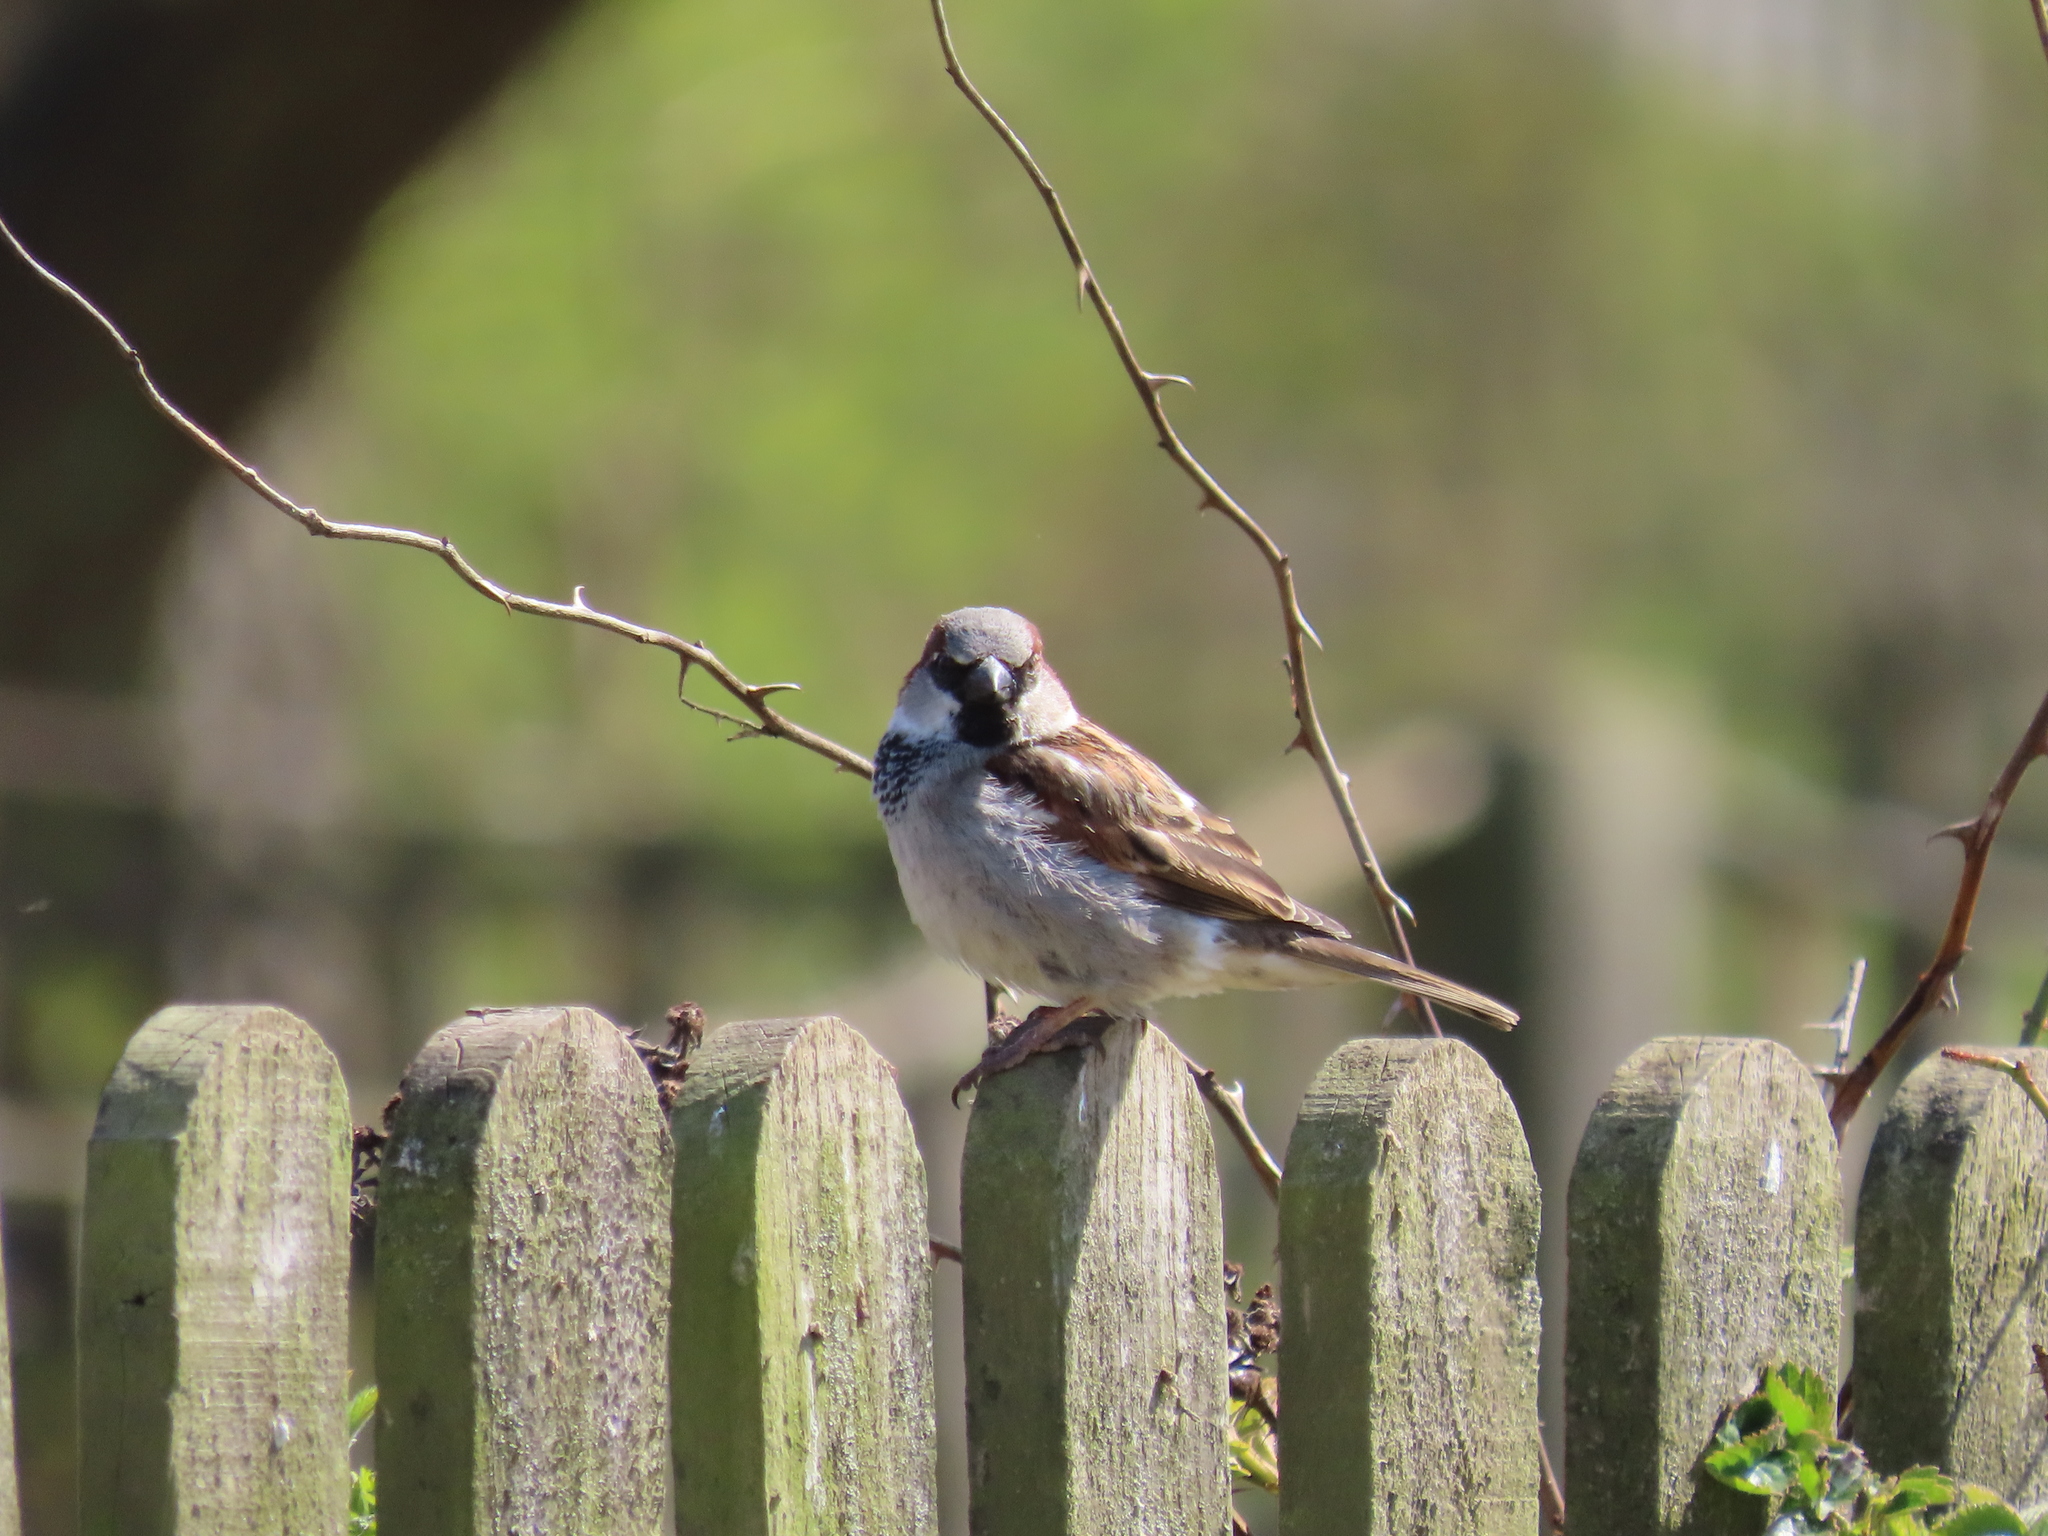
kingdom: Animalia
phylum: Chordata
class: Aves
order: Passeriformes
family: Passeridae
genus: Passer
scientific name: Passer domesticus
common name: House sparrow
